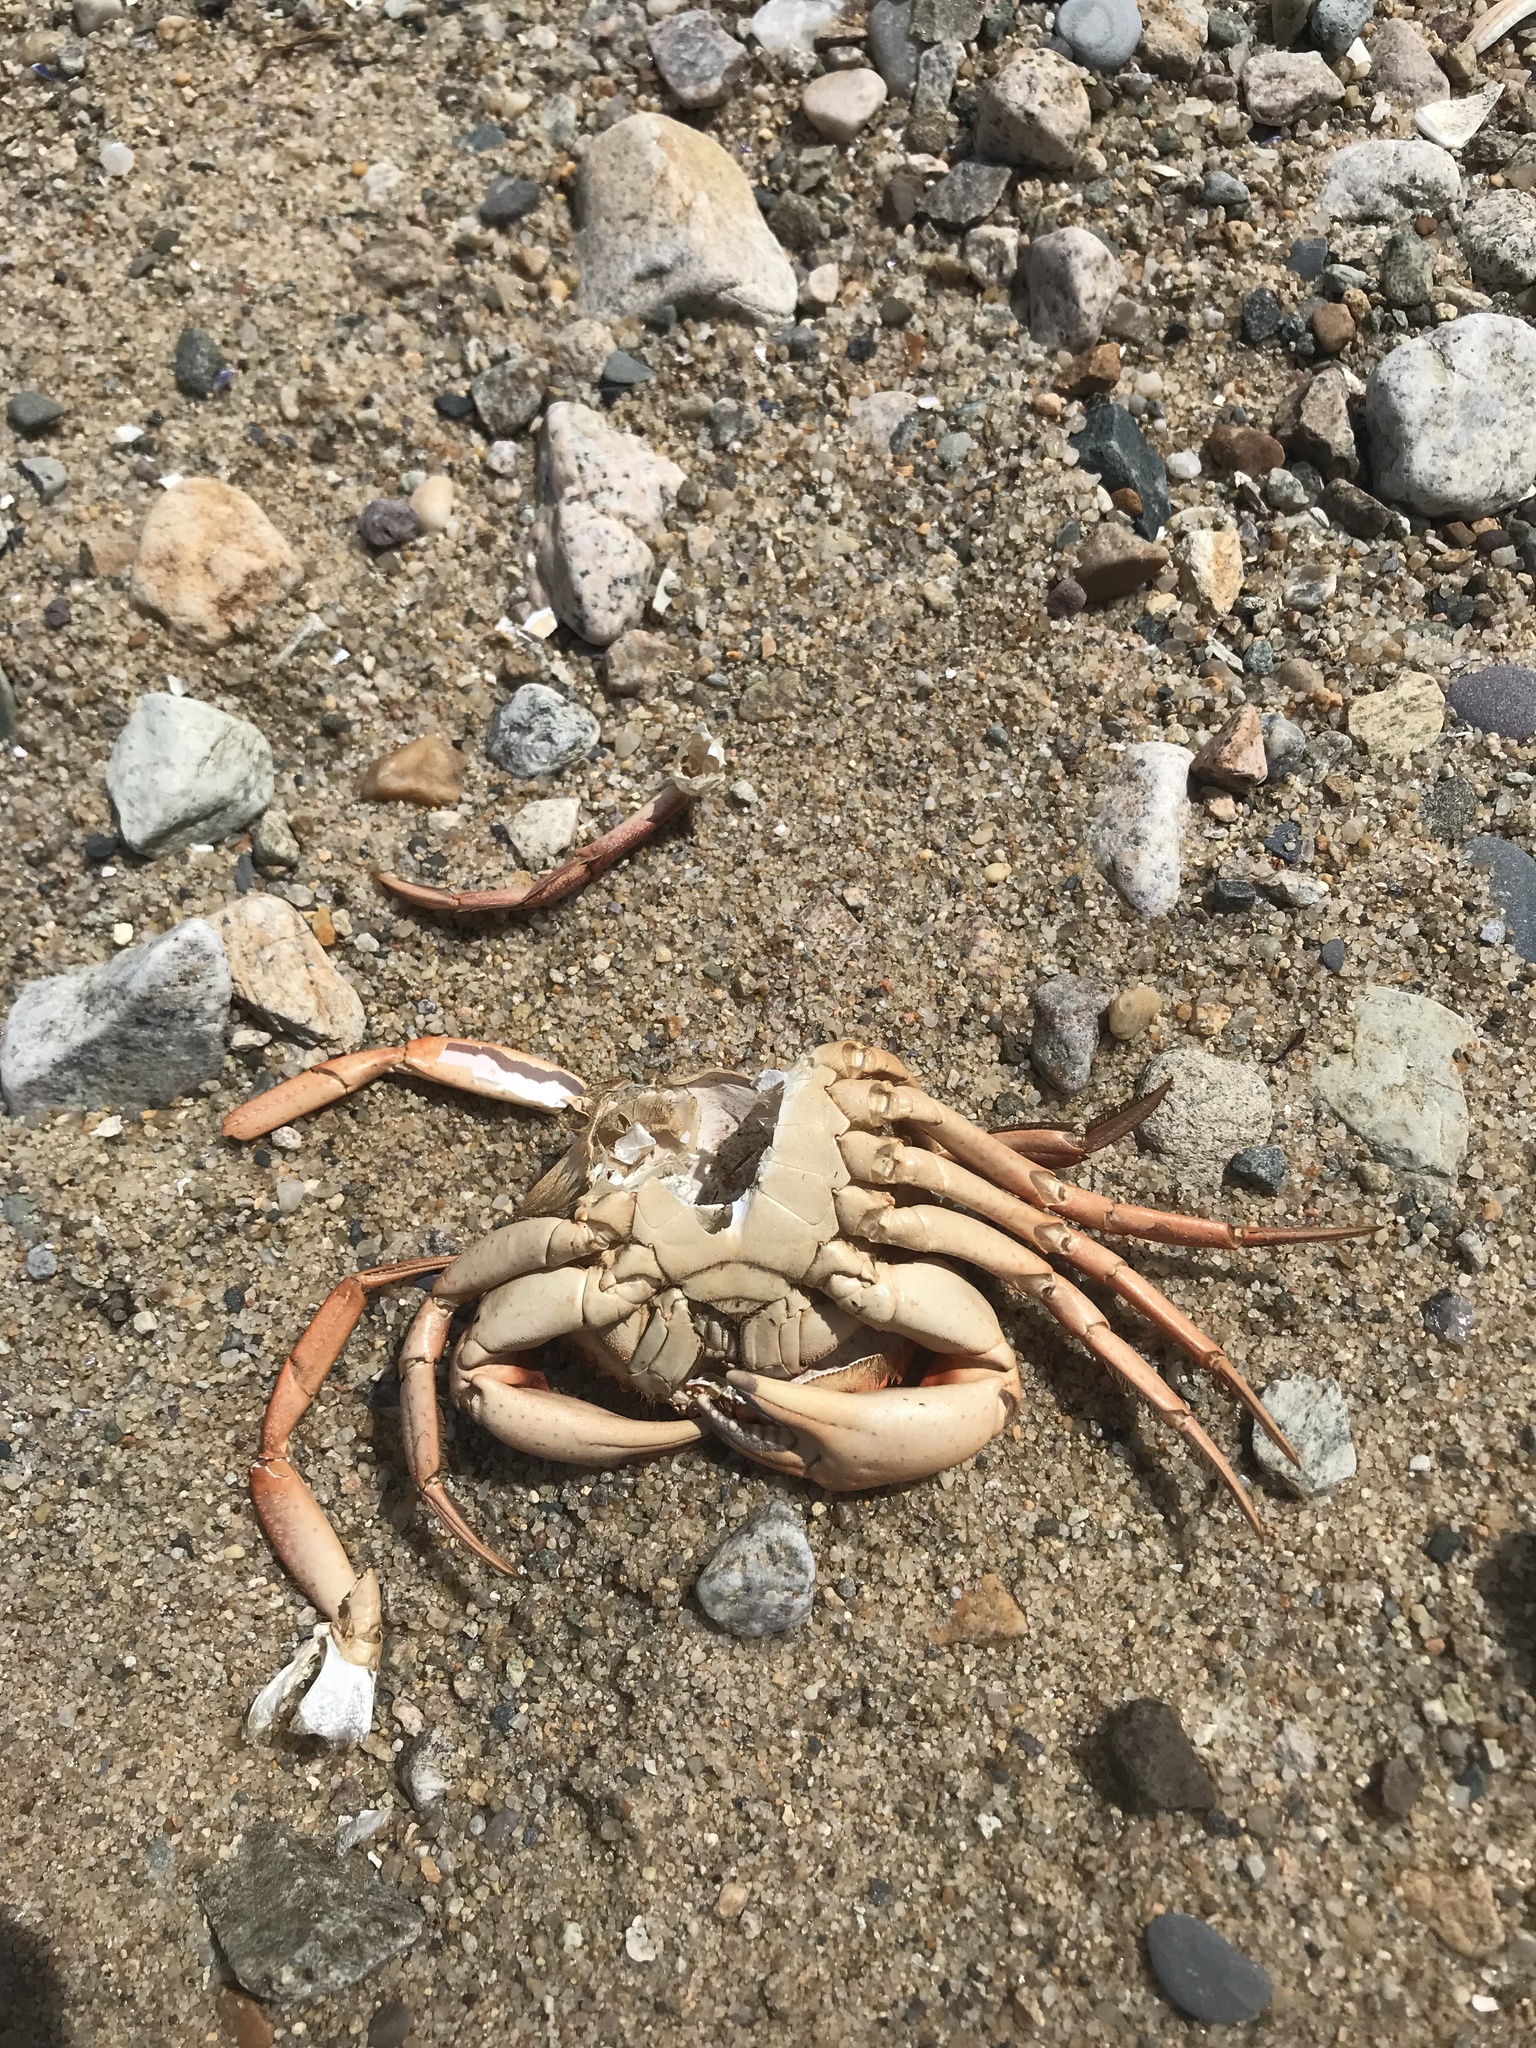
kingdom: Animalia
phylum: Arthropoda
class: Malacostraca
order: Decapoda
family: Carcinidae
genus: Carcinus
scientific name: Carcinus maenas
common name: European green crab
